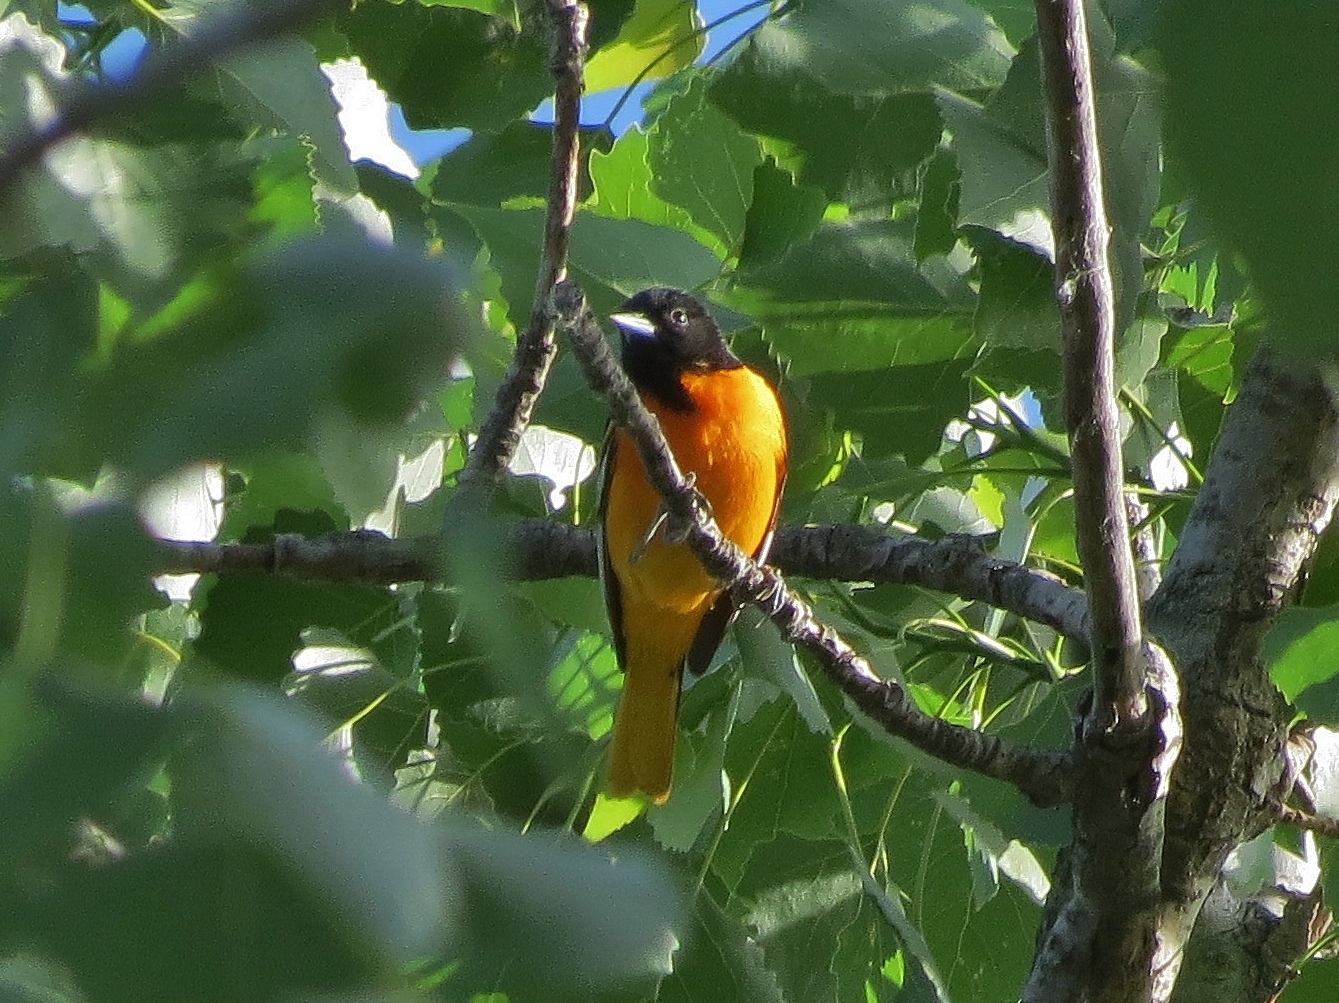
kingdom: Animalia
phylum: Chordata
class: Aves
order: Passeriformes
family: Icteridae
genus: Icterus
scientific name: Icterus galbula
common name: Baltimore oriole
